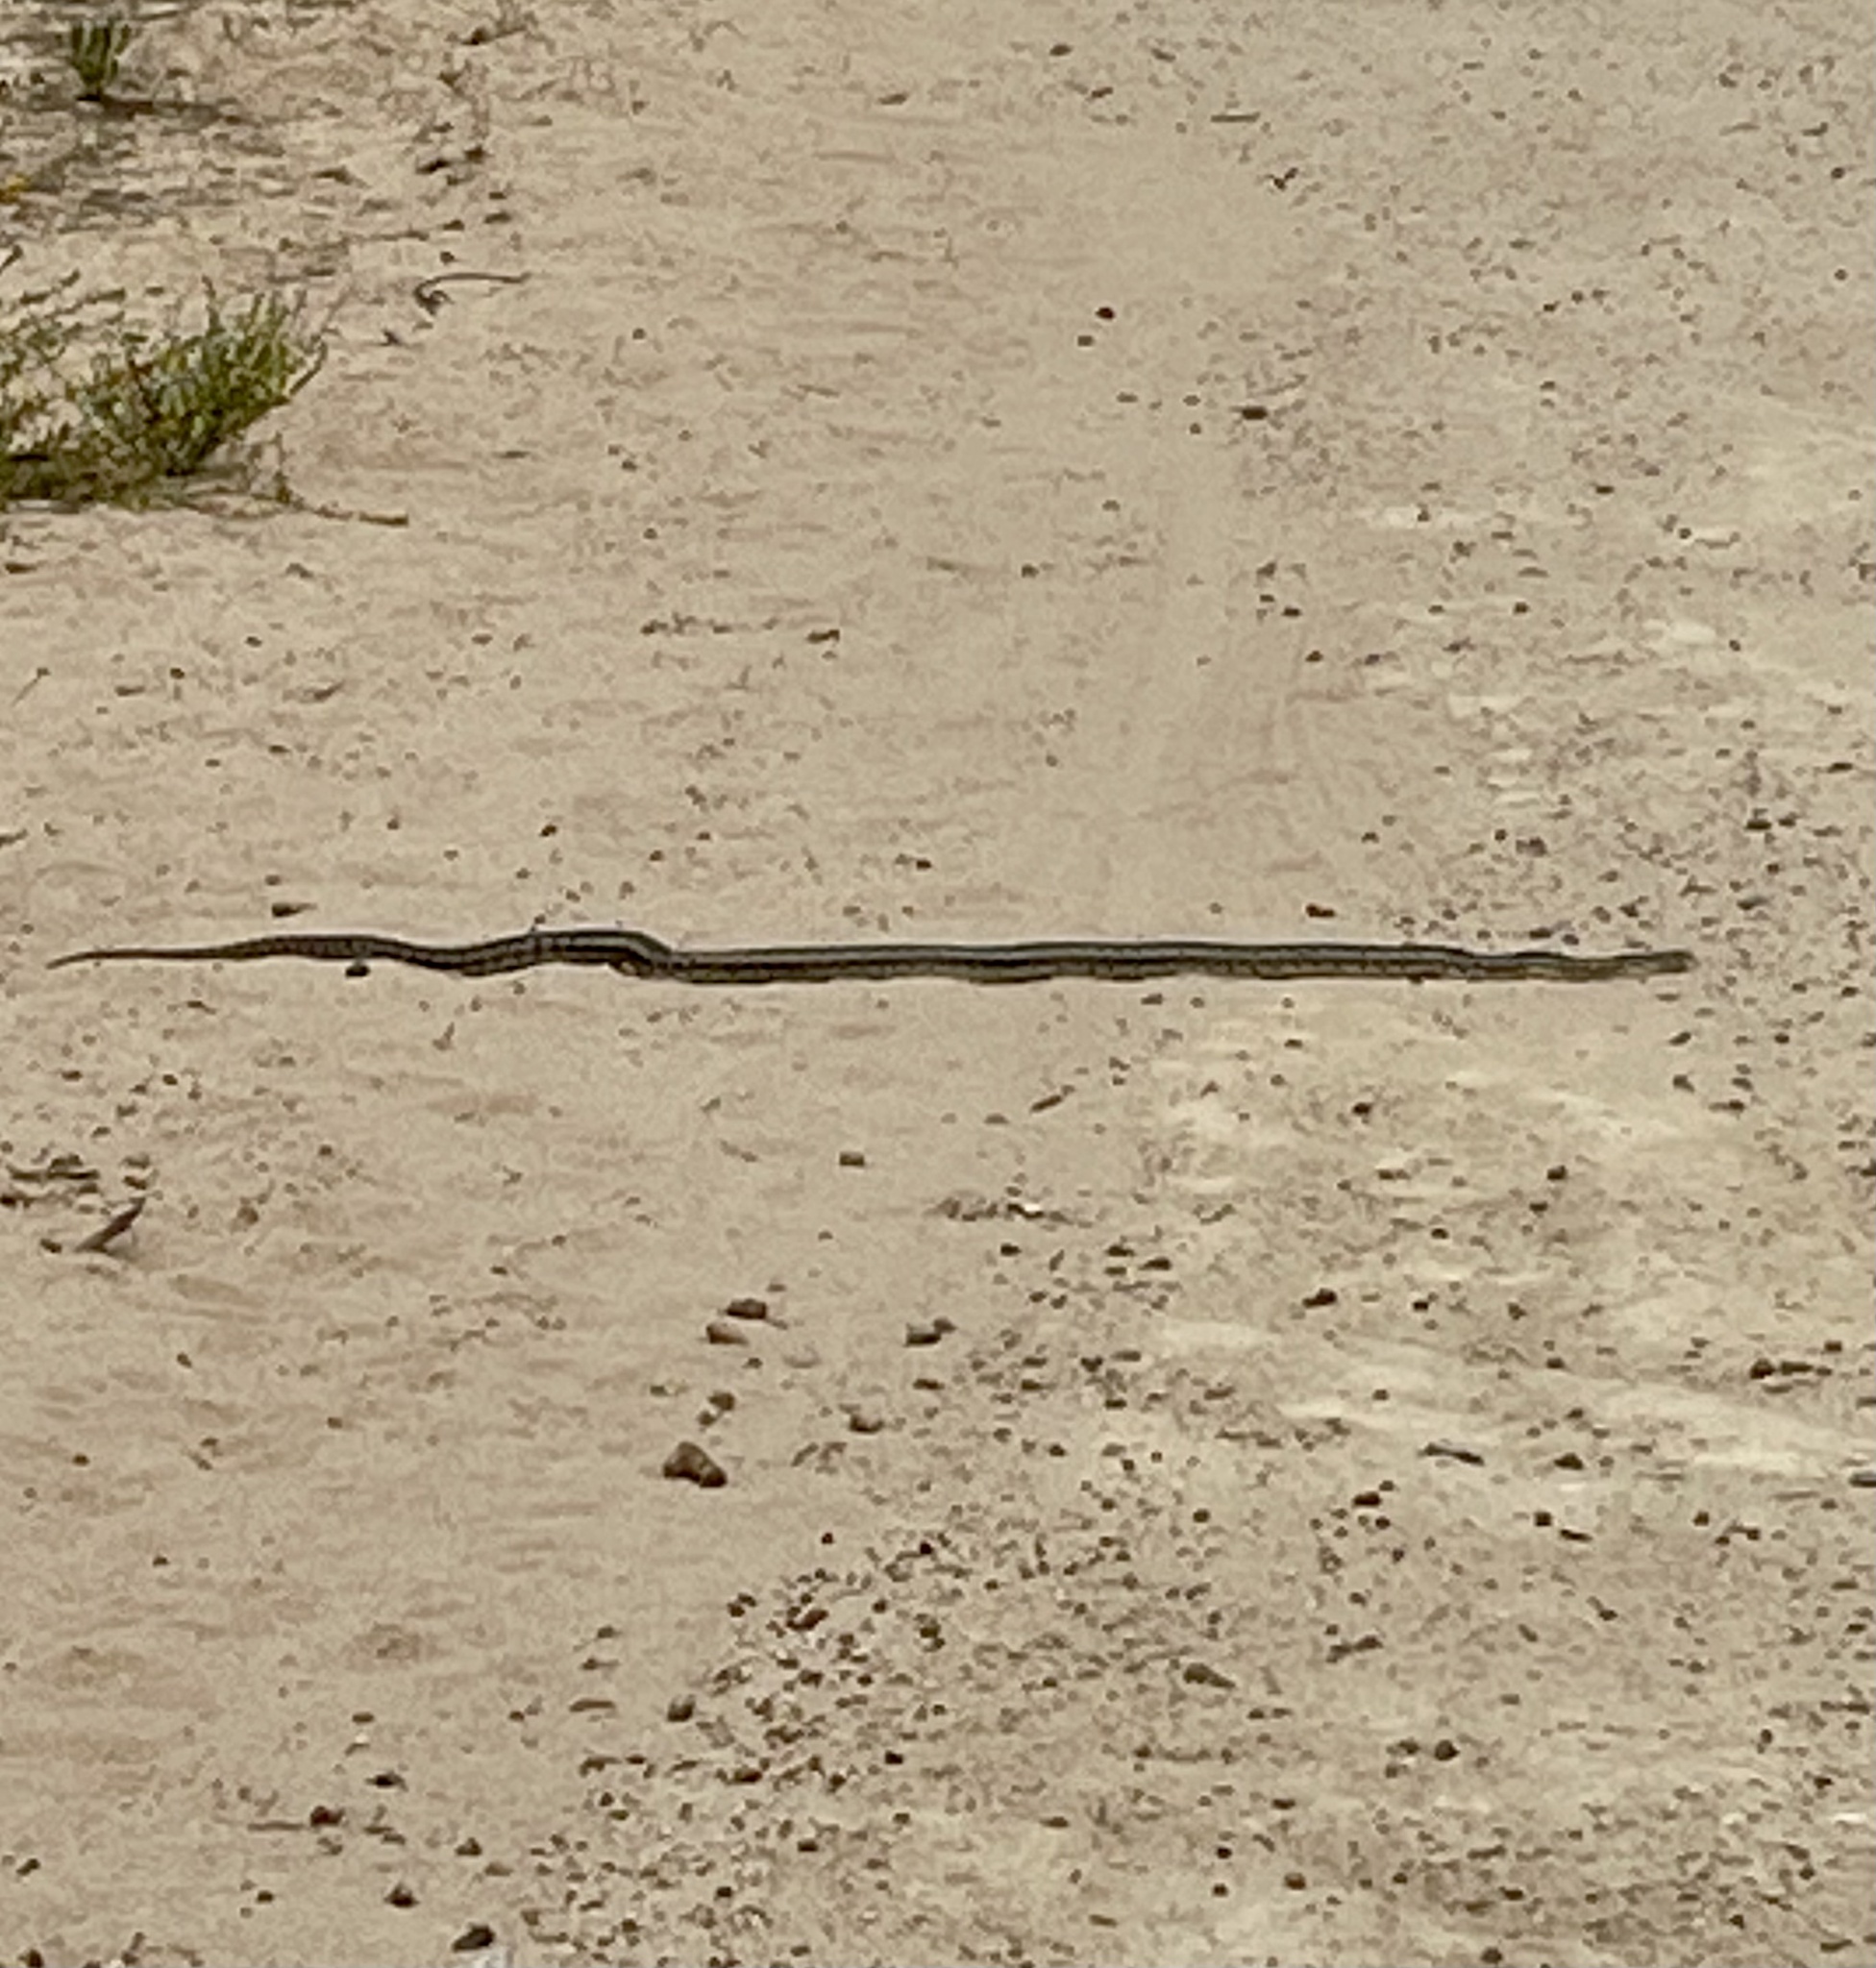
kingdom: Animalia
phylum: Chordata
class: Squamata
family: Colubridae
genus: Pituophis
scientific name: Pituophis catenifer
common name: Gopher snake
